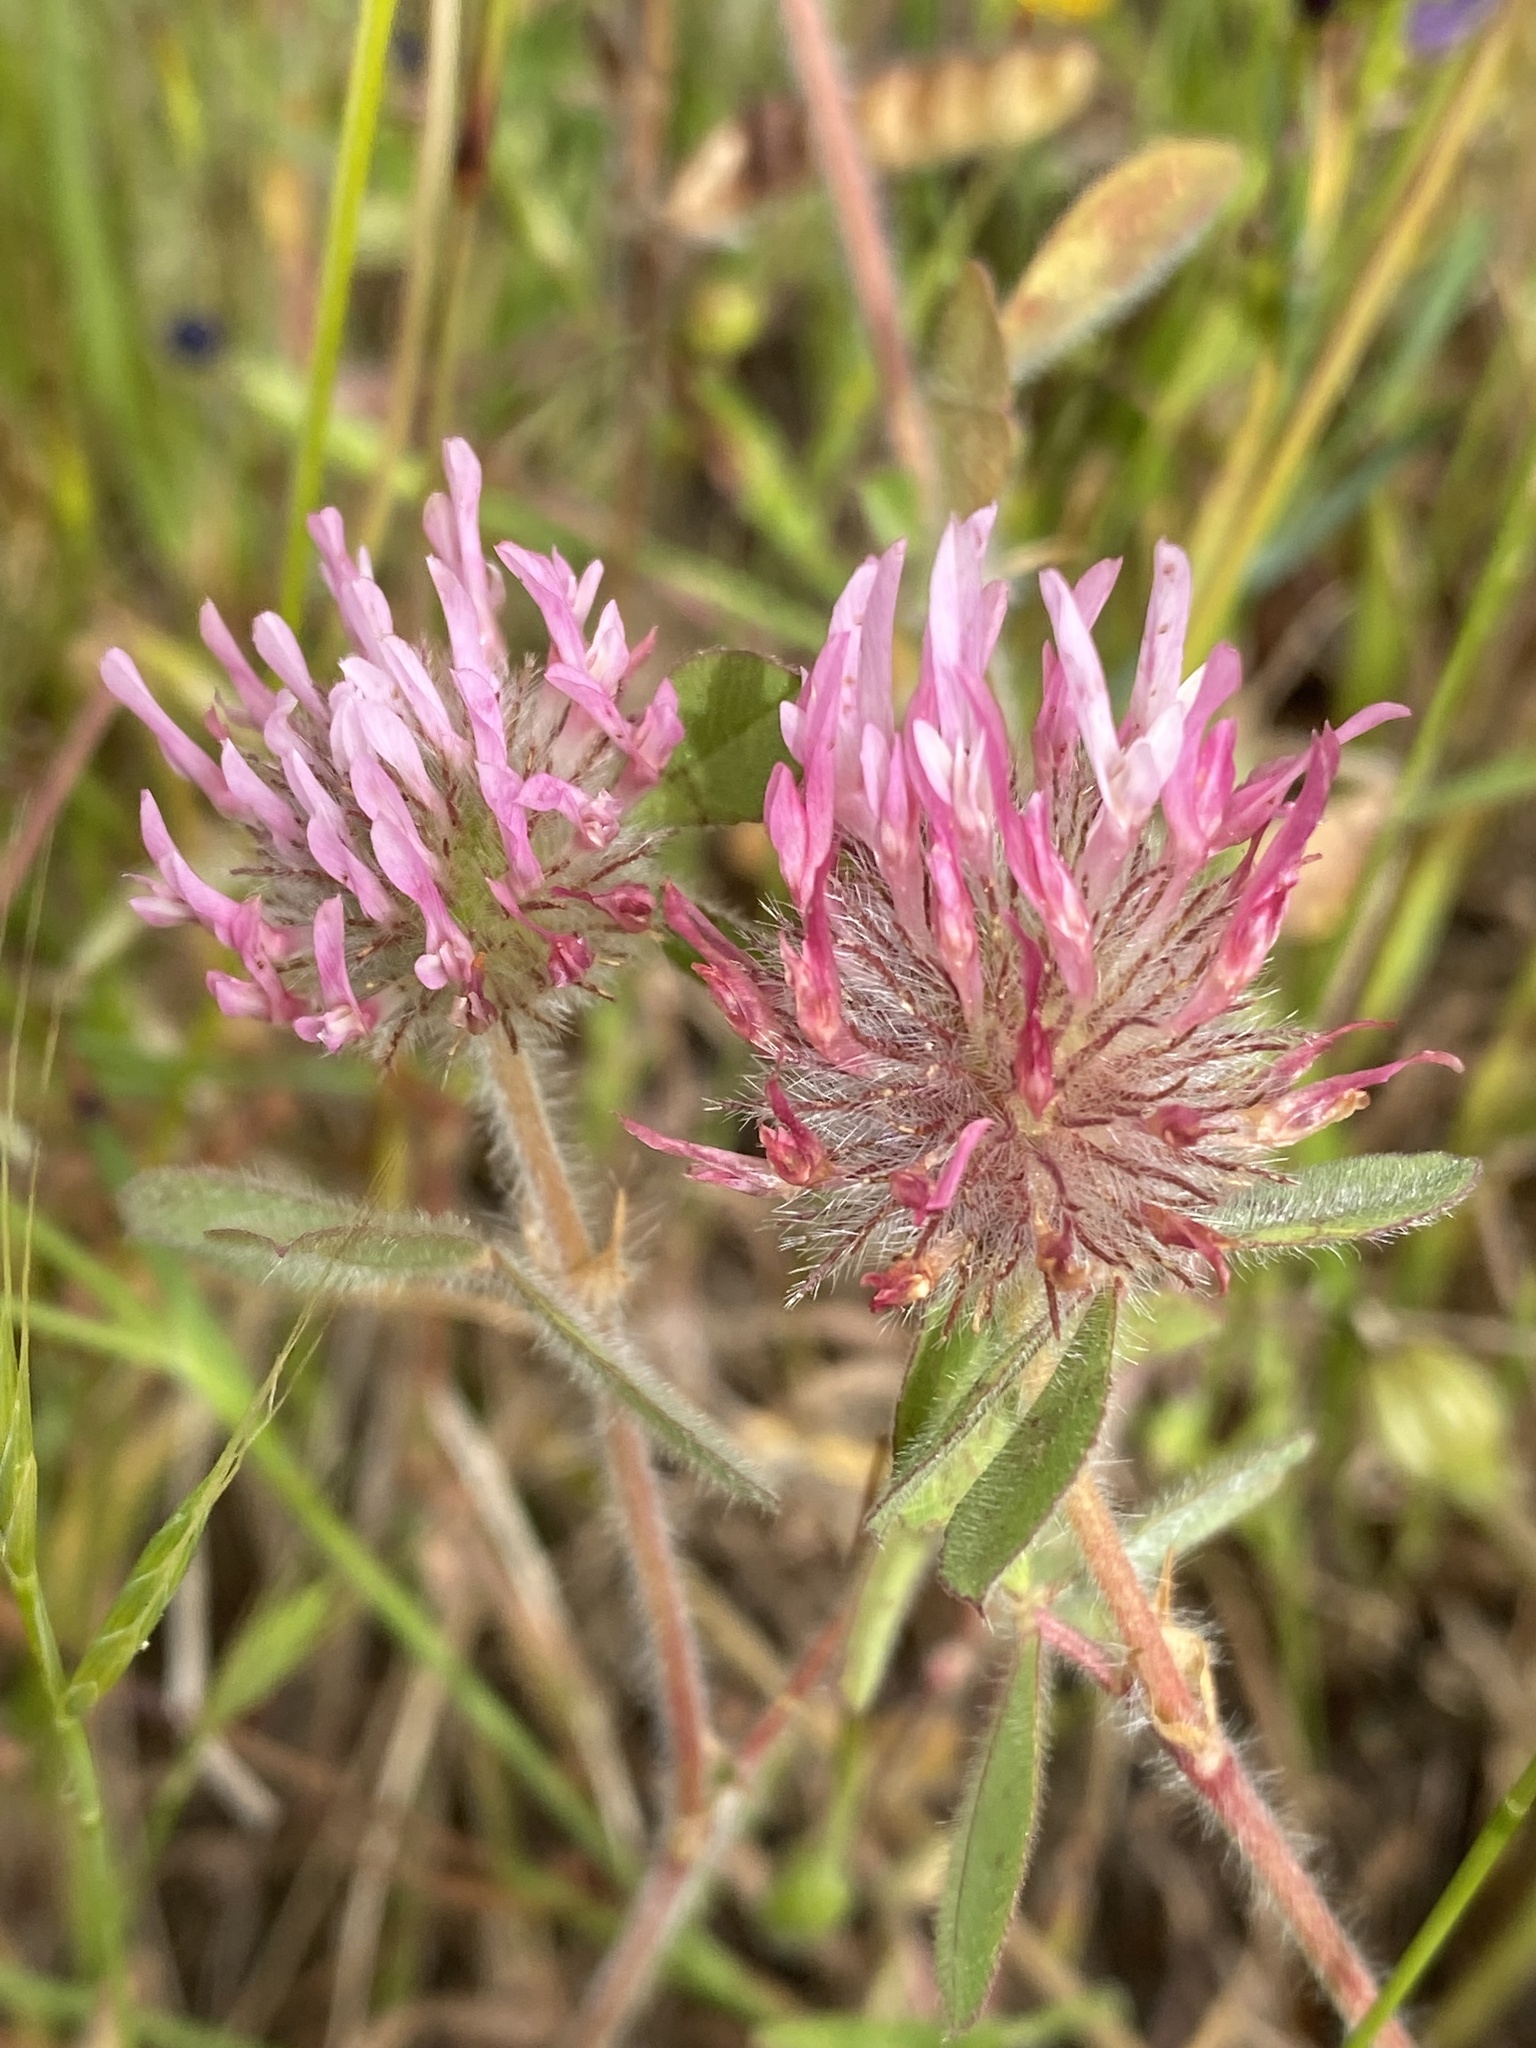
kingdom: Plantae
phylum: Tracheophyta
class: Magnoliopsida
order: Fabales
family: Fabaceae
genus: Trifolium
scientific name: Trifolium hirtum
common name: Rose clover
